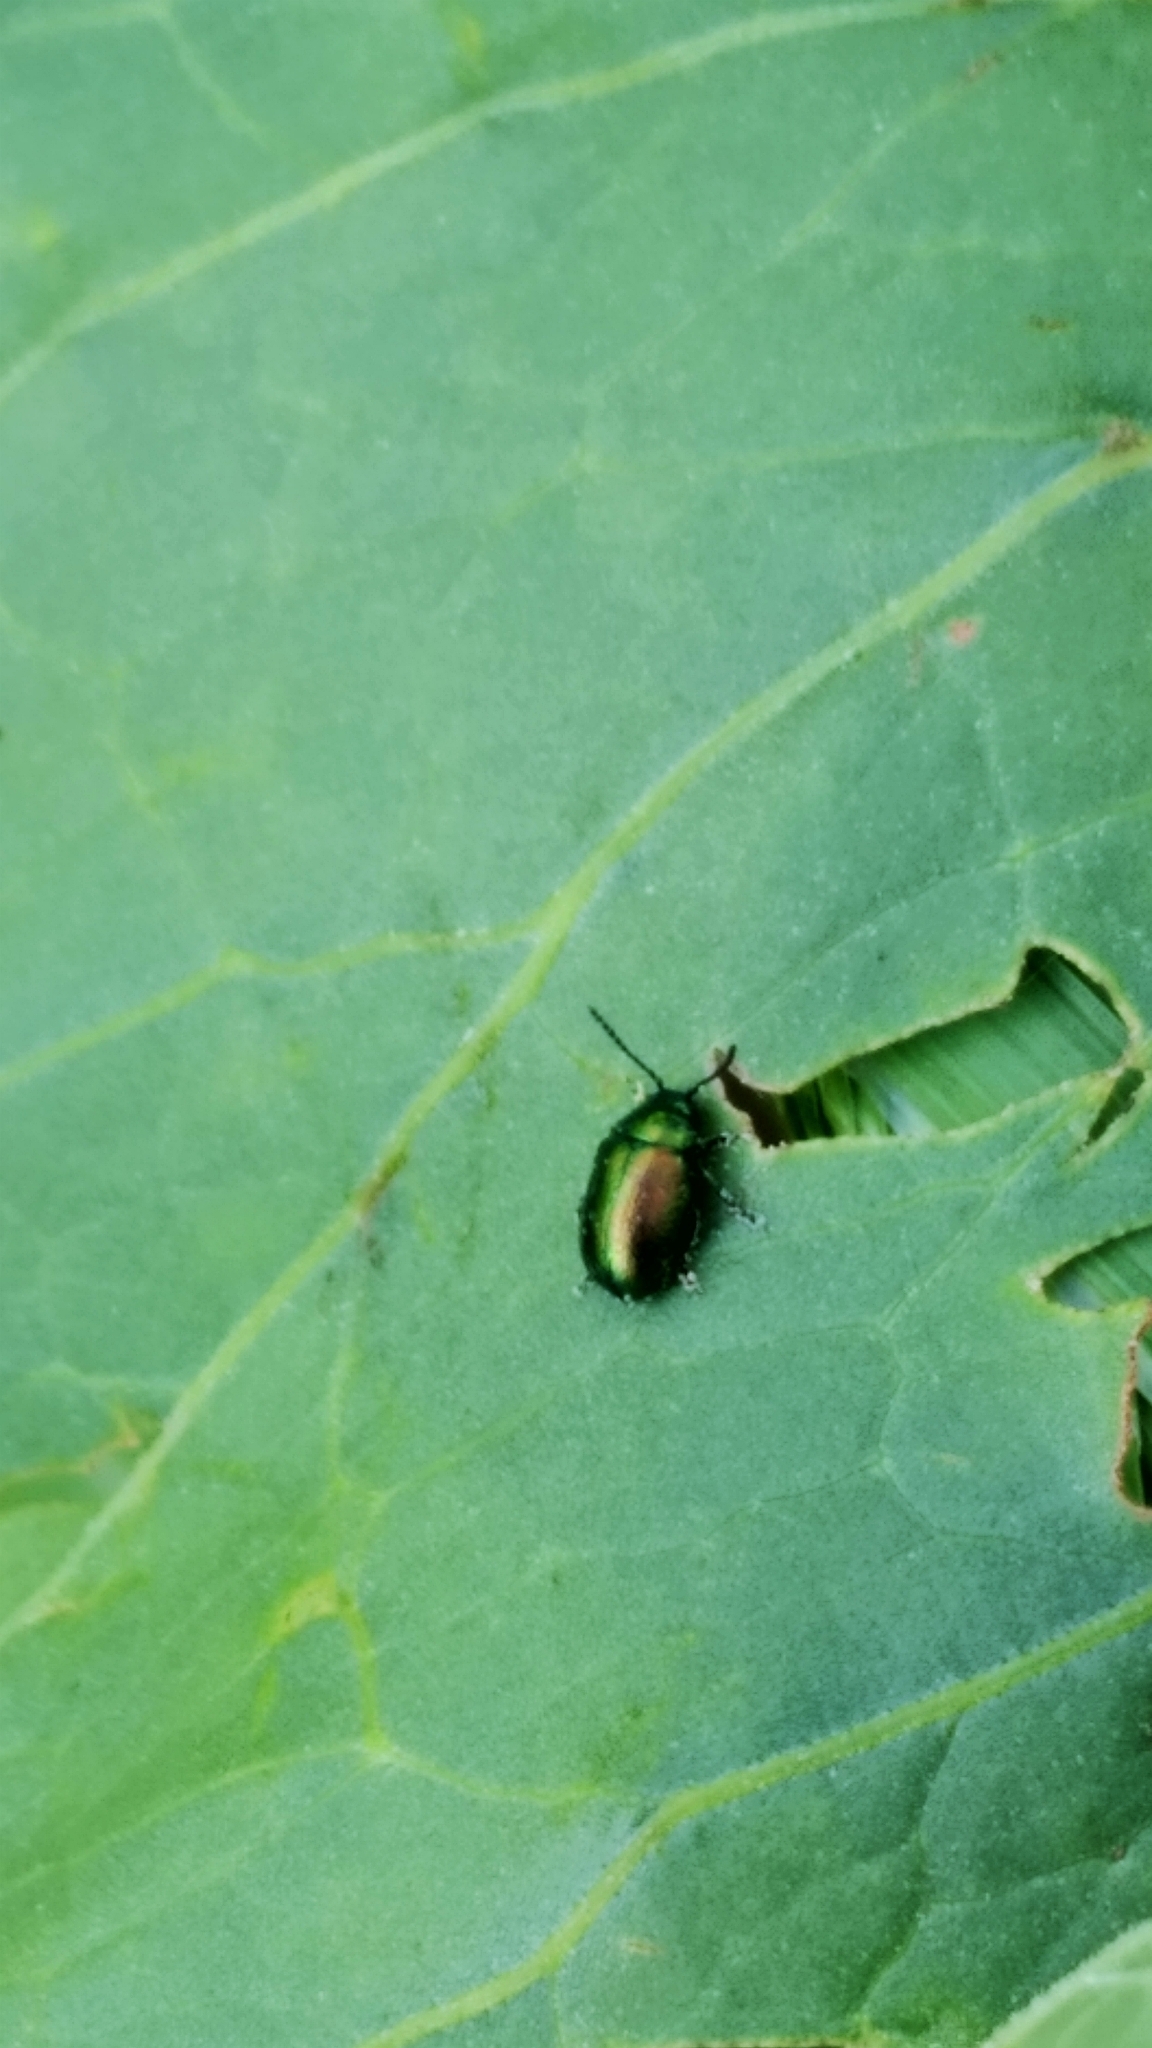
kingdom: Animalia
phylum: Arthropoda
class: Insecta
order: Coleoptera
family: Chrysomelidae
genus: Gastrophysa
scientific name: Gastrophysa viridula
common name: Green dock beetle
